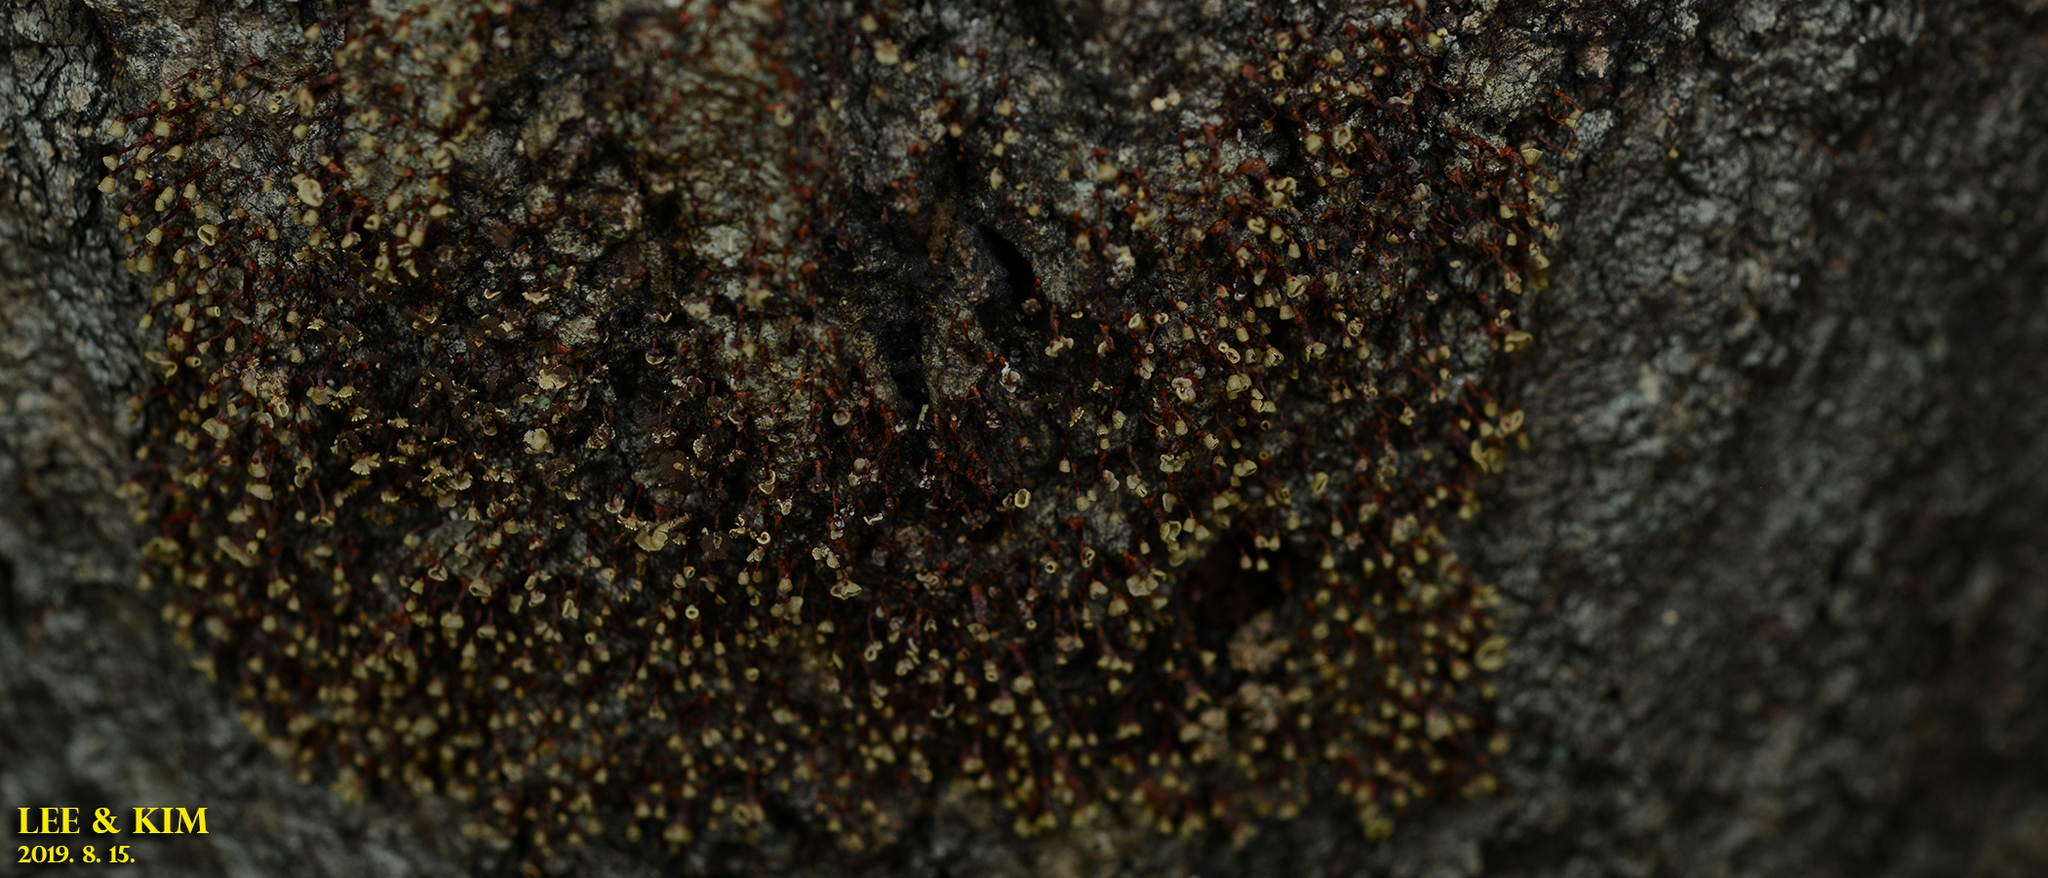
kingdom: Protozoa
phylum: Mycetozoa
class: Myxomycetes
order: Physarales
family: Physaraceae
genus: Physarella
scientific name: Physarella oblonga
